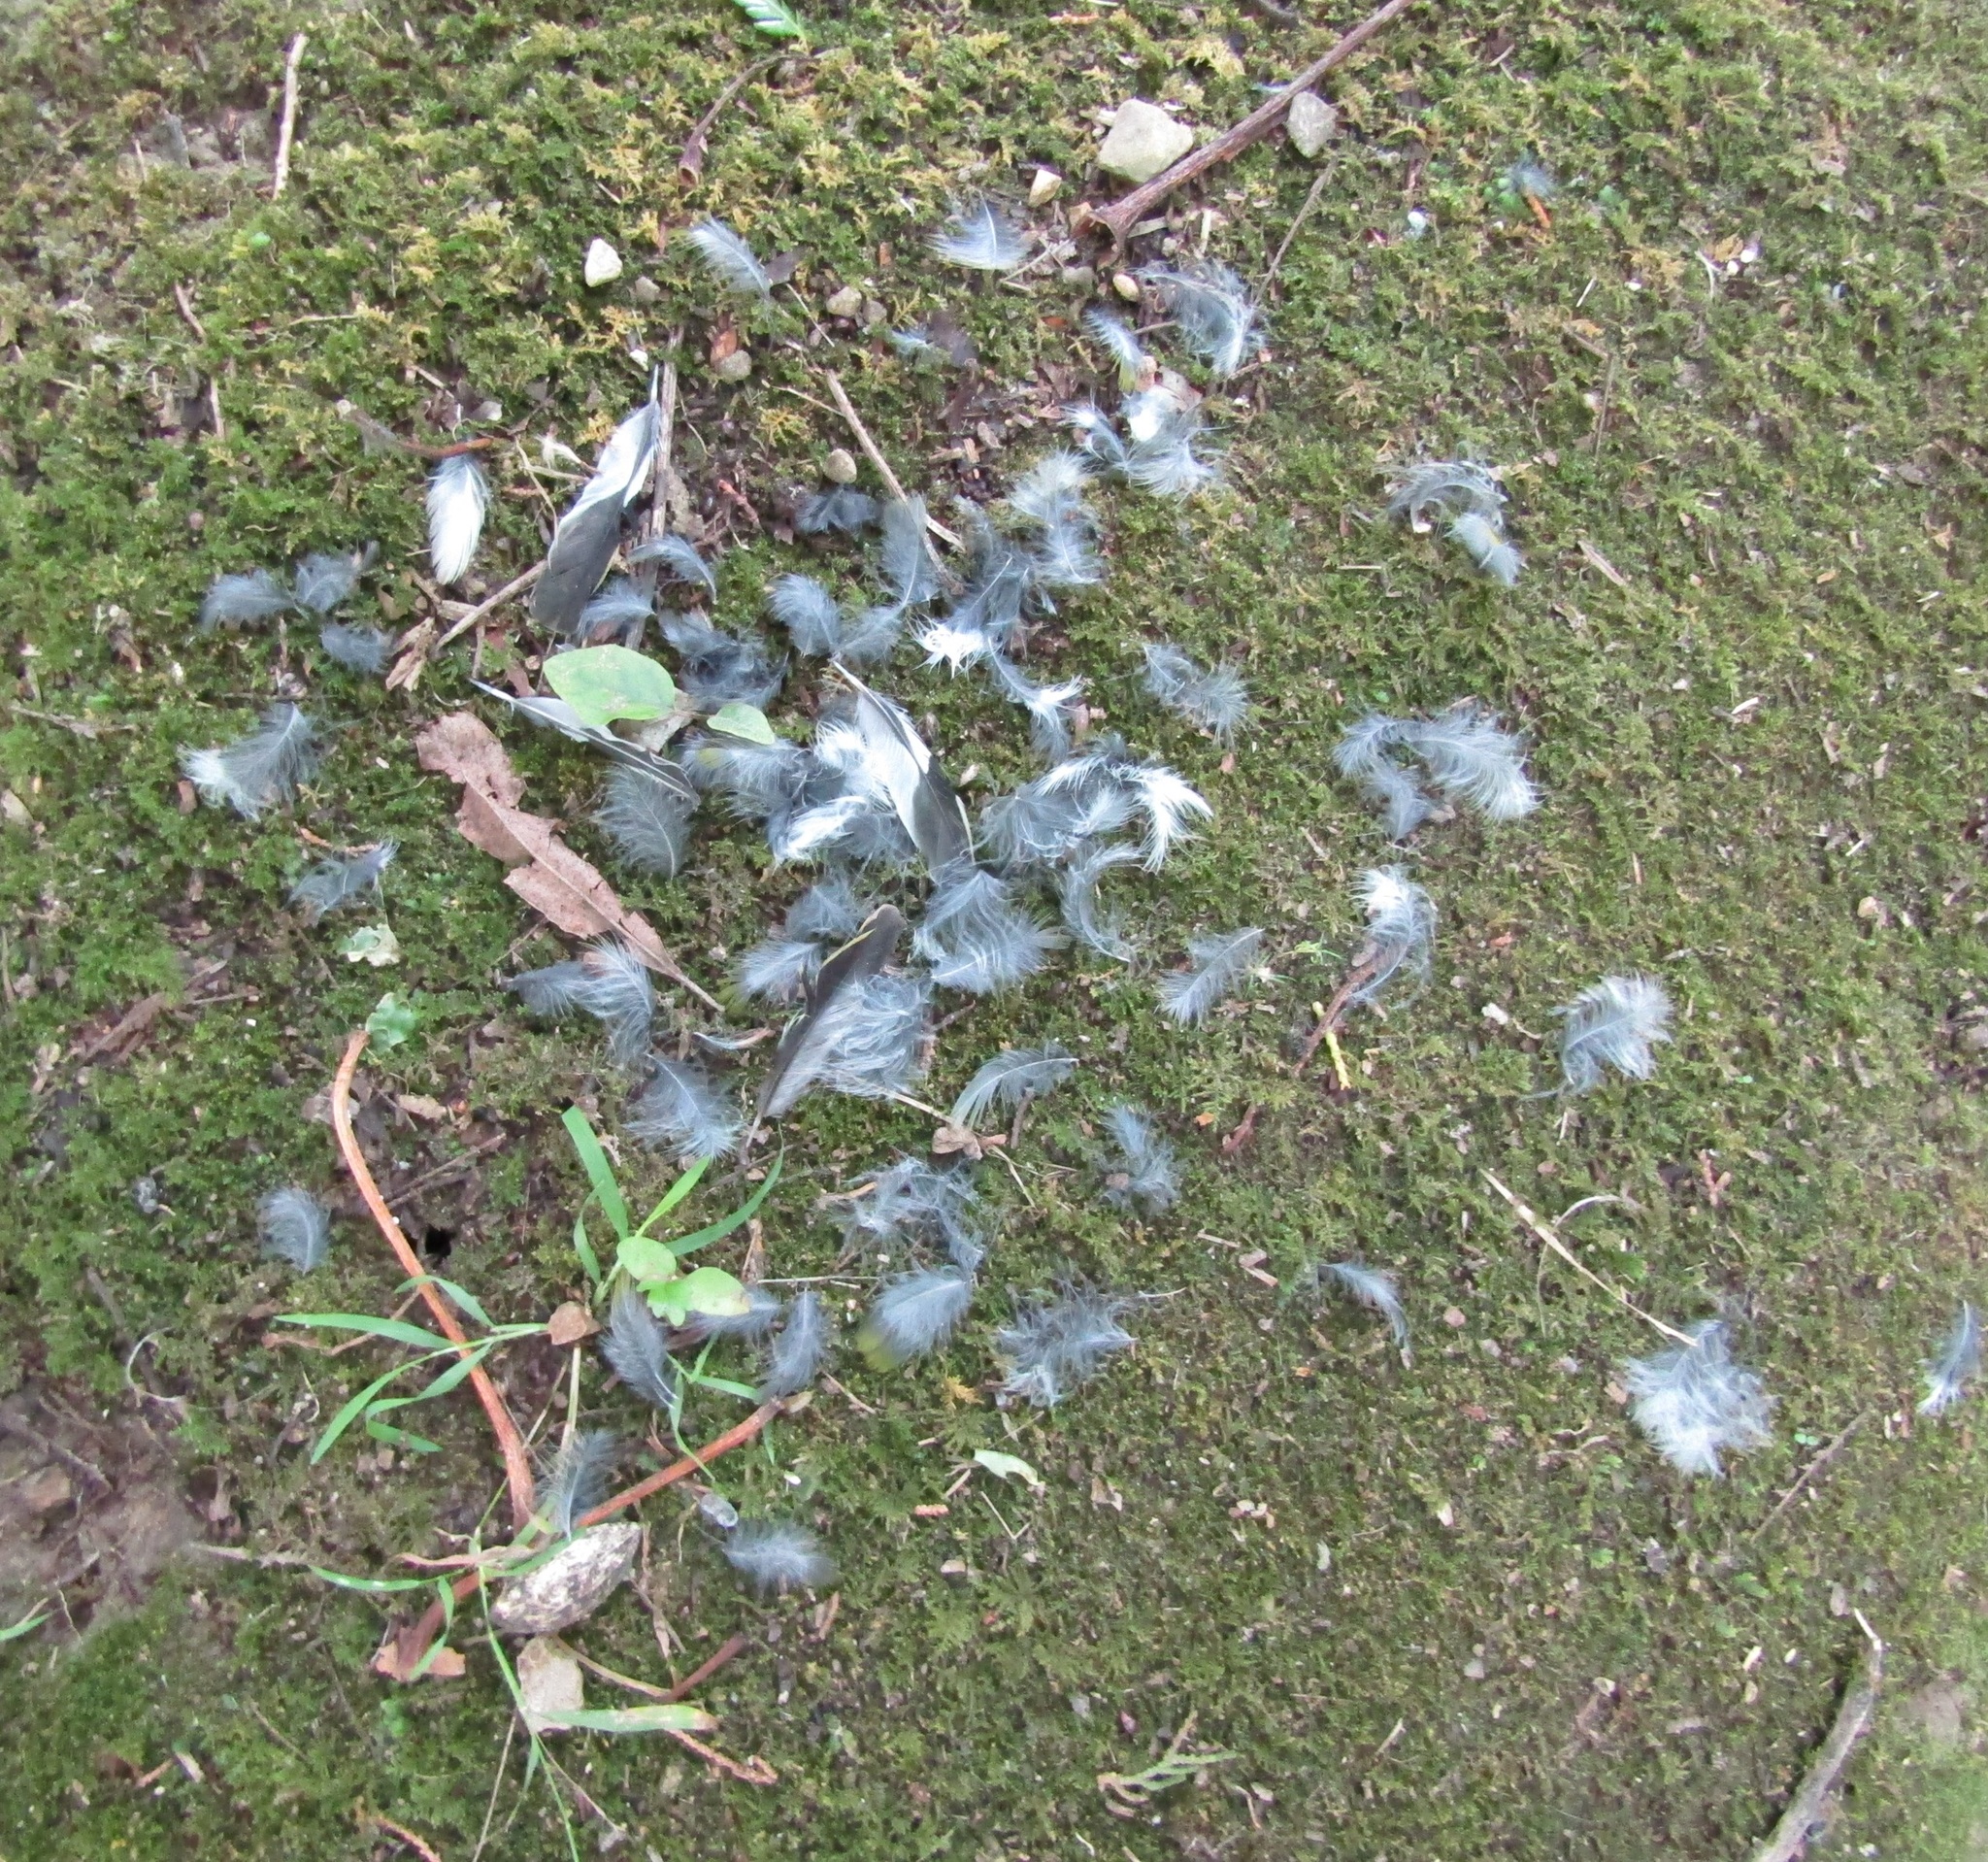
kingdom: Animalia
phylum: Chordata
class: Aves
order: Passeriformes
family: Zosteropidae
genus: Zosterops
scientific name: Zosterops lateralis
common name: Silvereye
